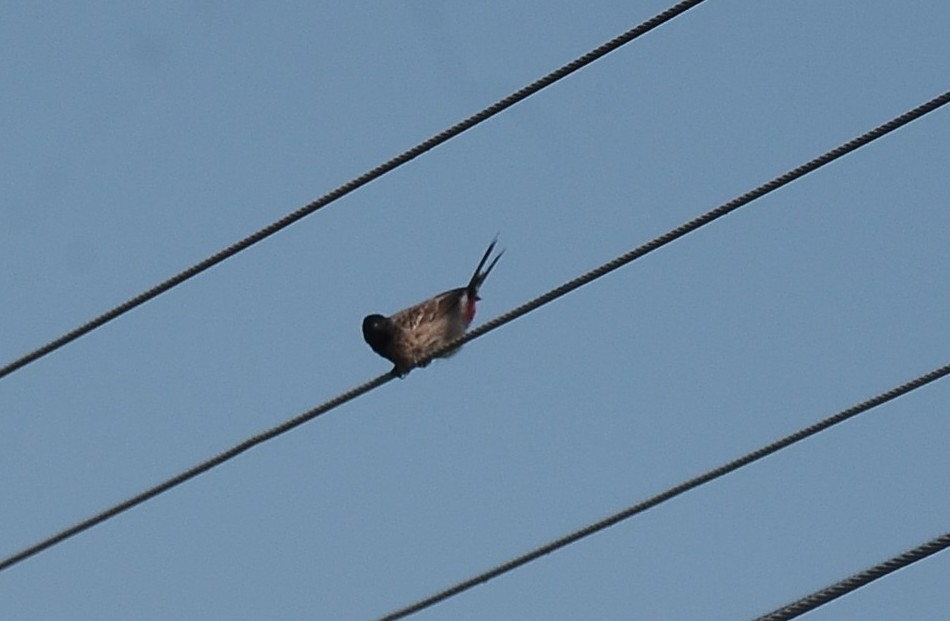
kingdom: Animalia
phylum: Chordata
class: Aves
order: Passeriformes
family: Pycnonotidae
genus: Pycnonotus
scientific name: Pycnonotus cafer
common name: Red-vented bulbul
